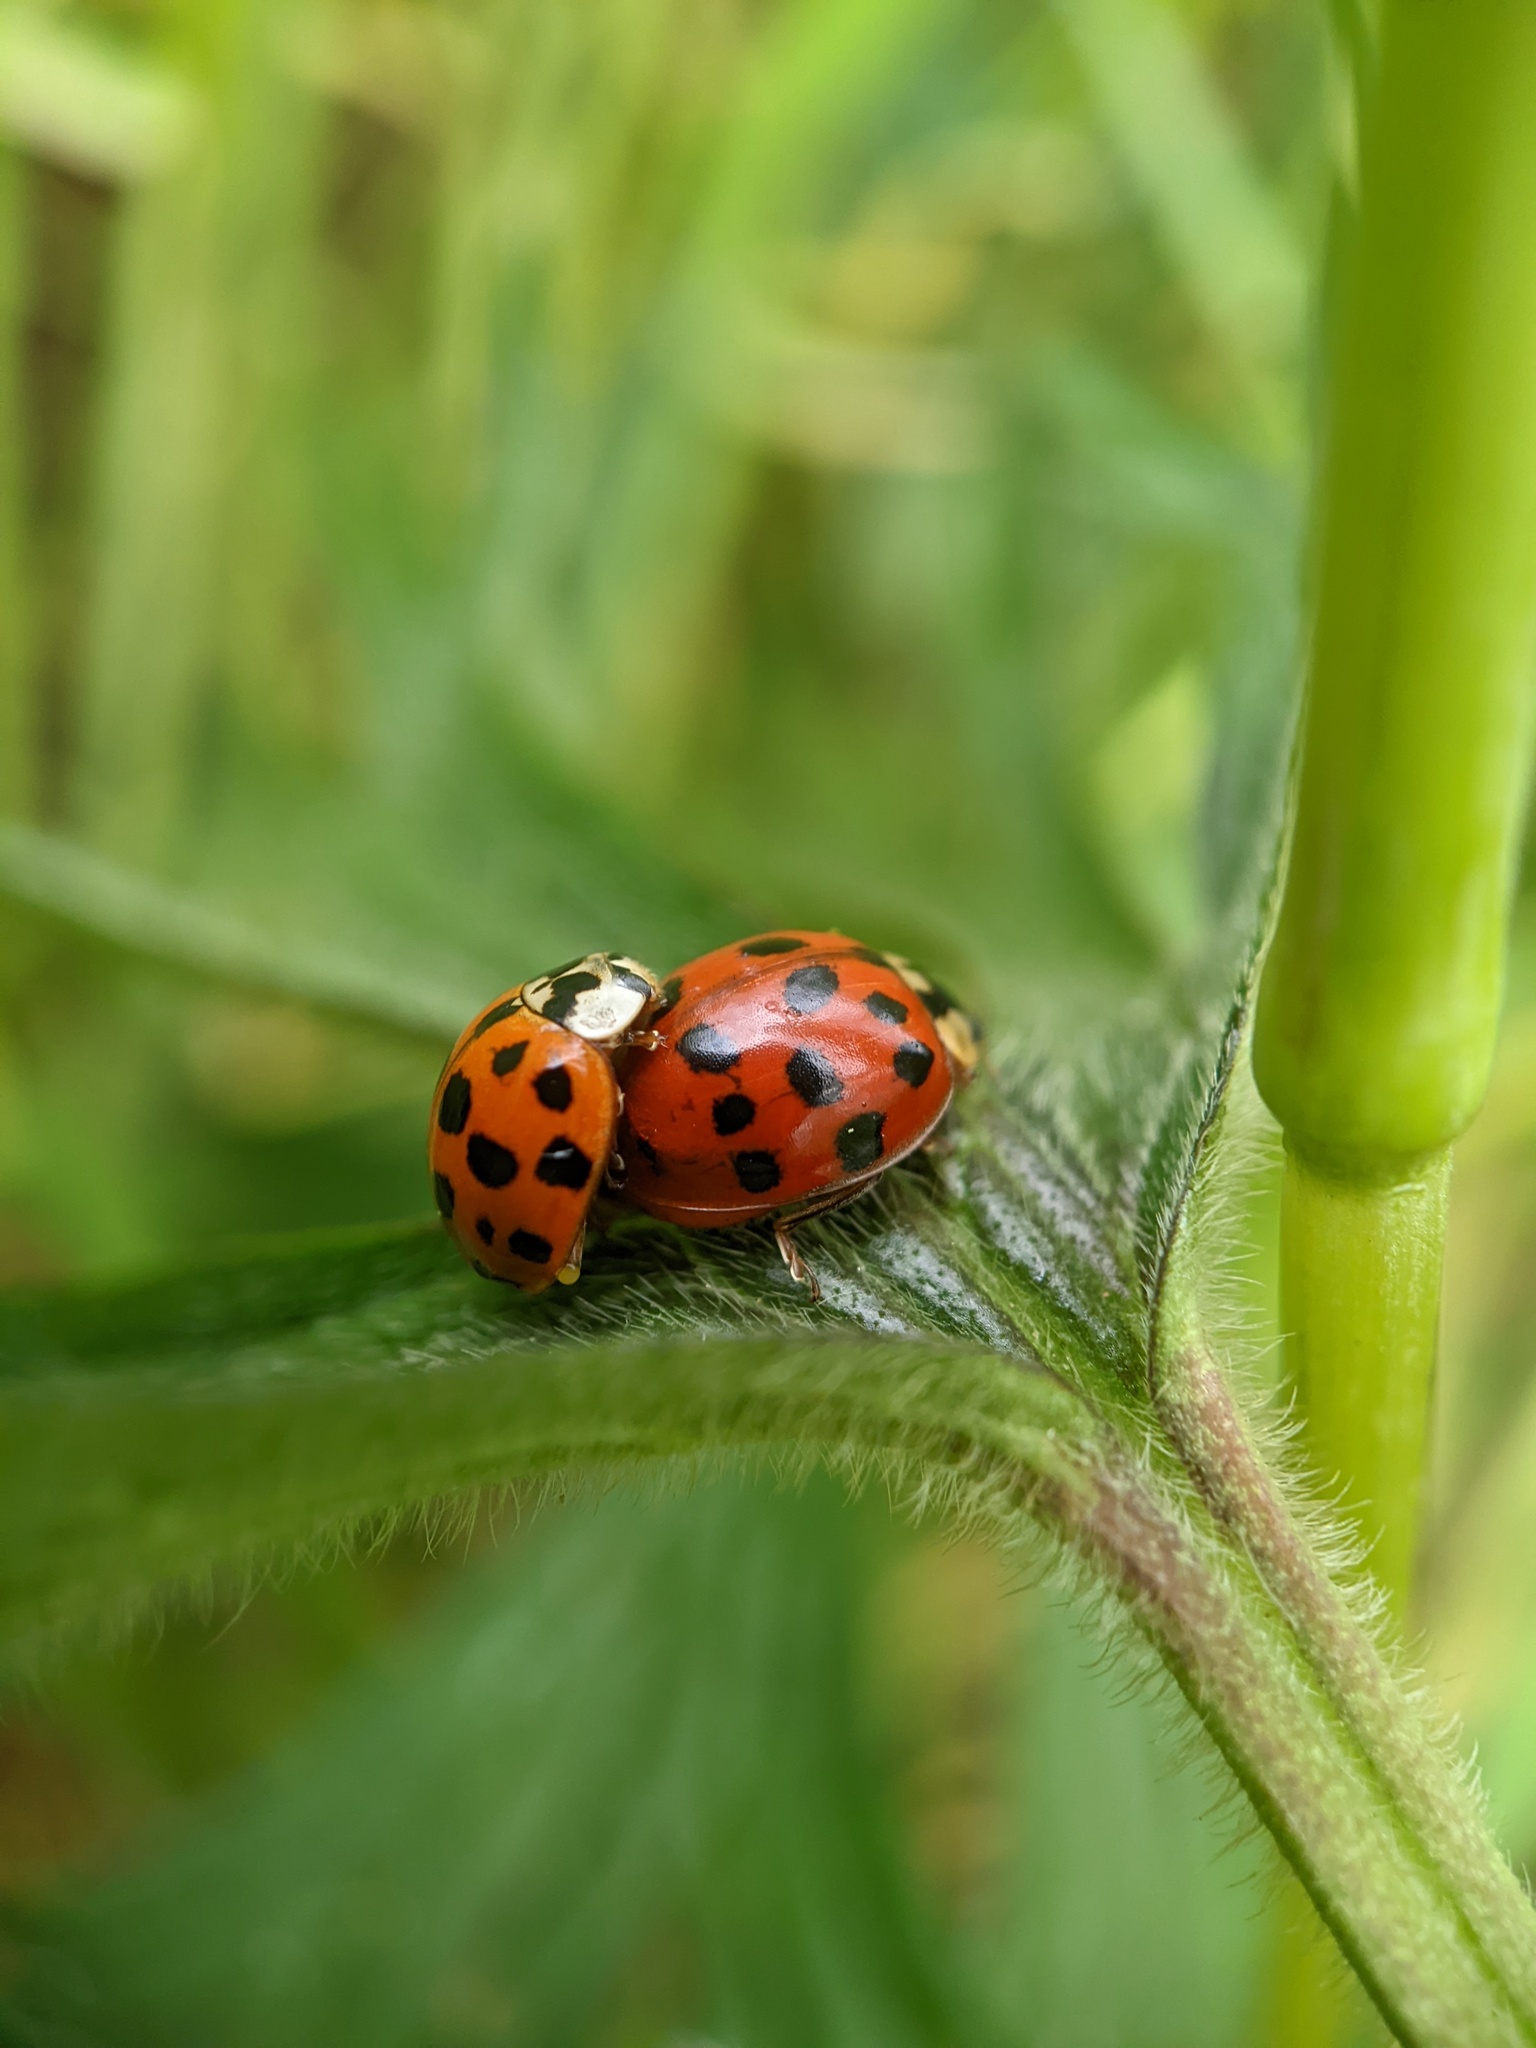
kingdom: Animalia
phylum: Arthropoda
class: Insecta
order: Coleoptera
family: Coccinellidae
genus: Harmonia
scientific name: Harmonia axyridis
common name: Harlequin ladybird
